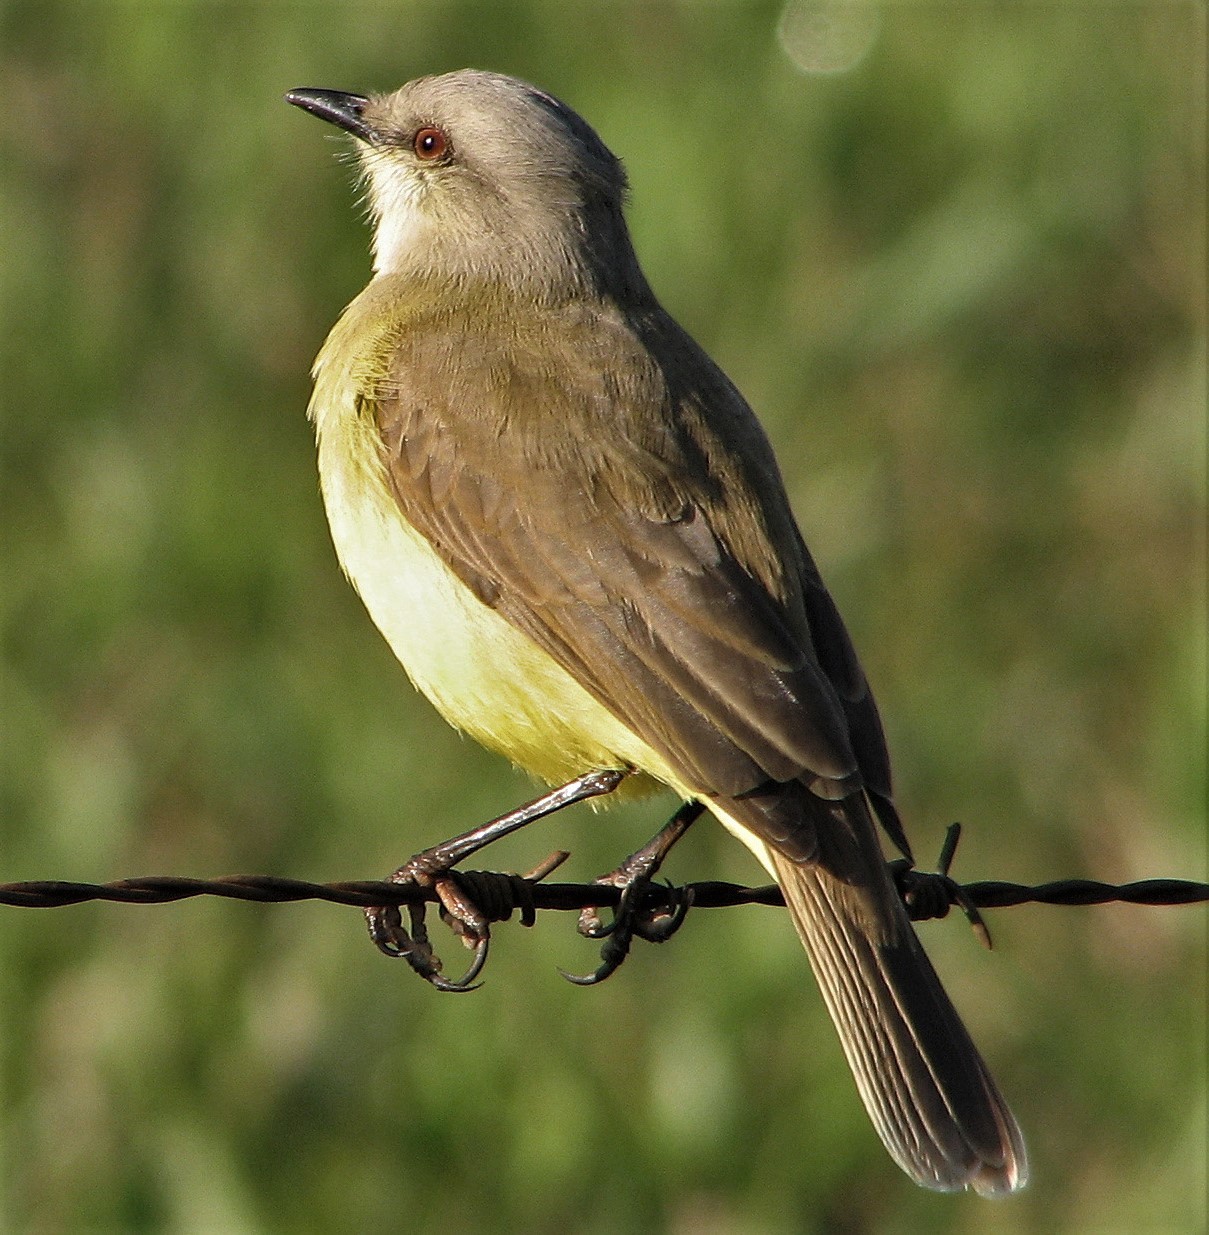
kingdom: Animalia
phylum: Chordata
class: Aves
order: Passeriformes
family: Tyrannidae
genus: Machetornis
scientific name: Machetornis rixosa
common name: Cattle tyrant
